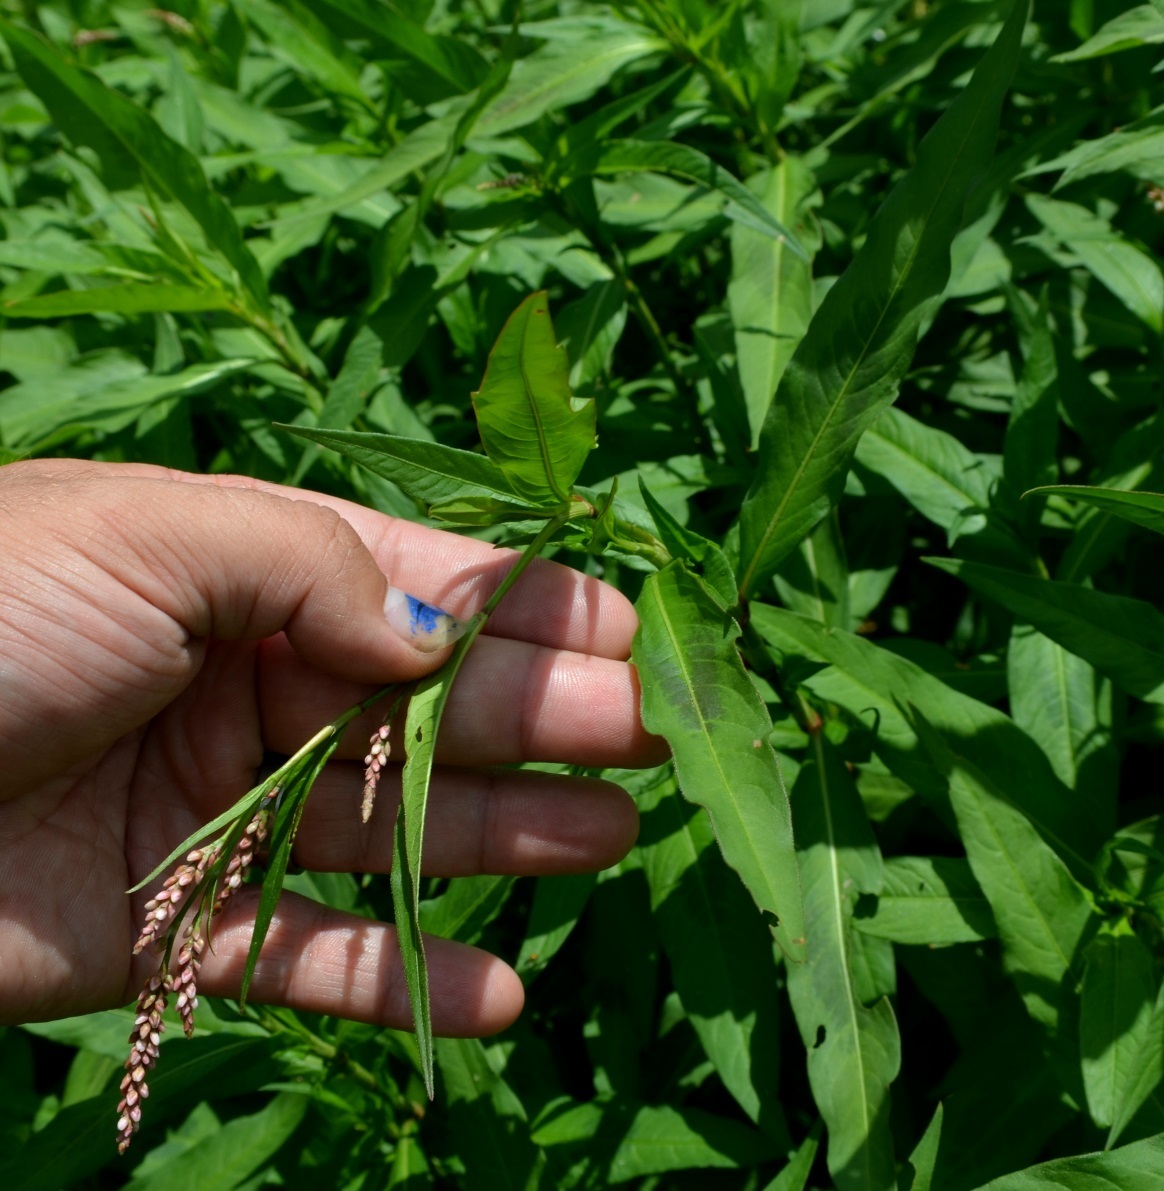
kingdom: Plantae
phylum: Tracheophyta
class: Magnoliopsida
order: Caryophyllales
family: Polygonaceae
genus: Persicaria
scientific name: Persicaria maculosa
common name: Redshank
